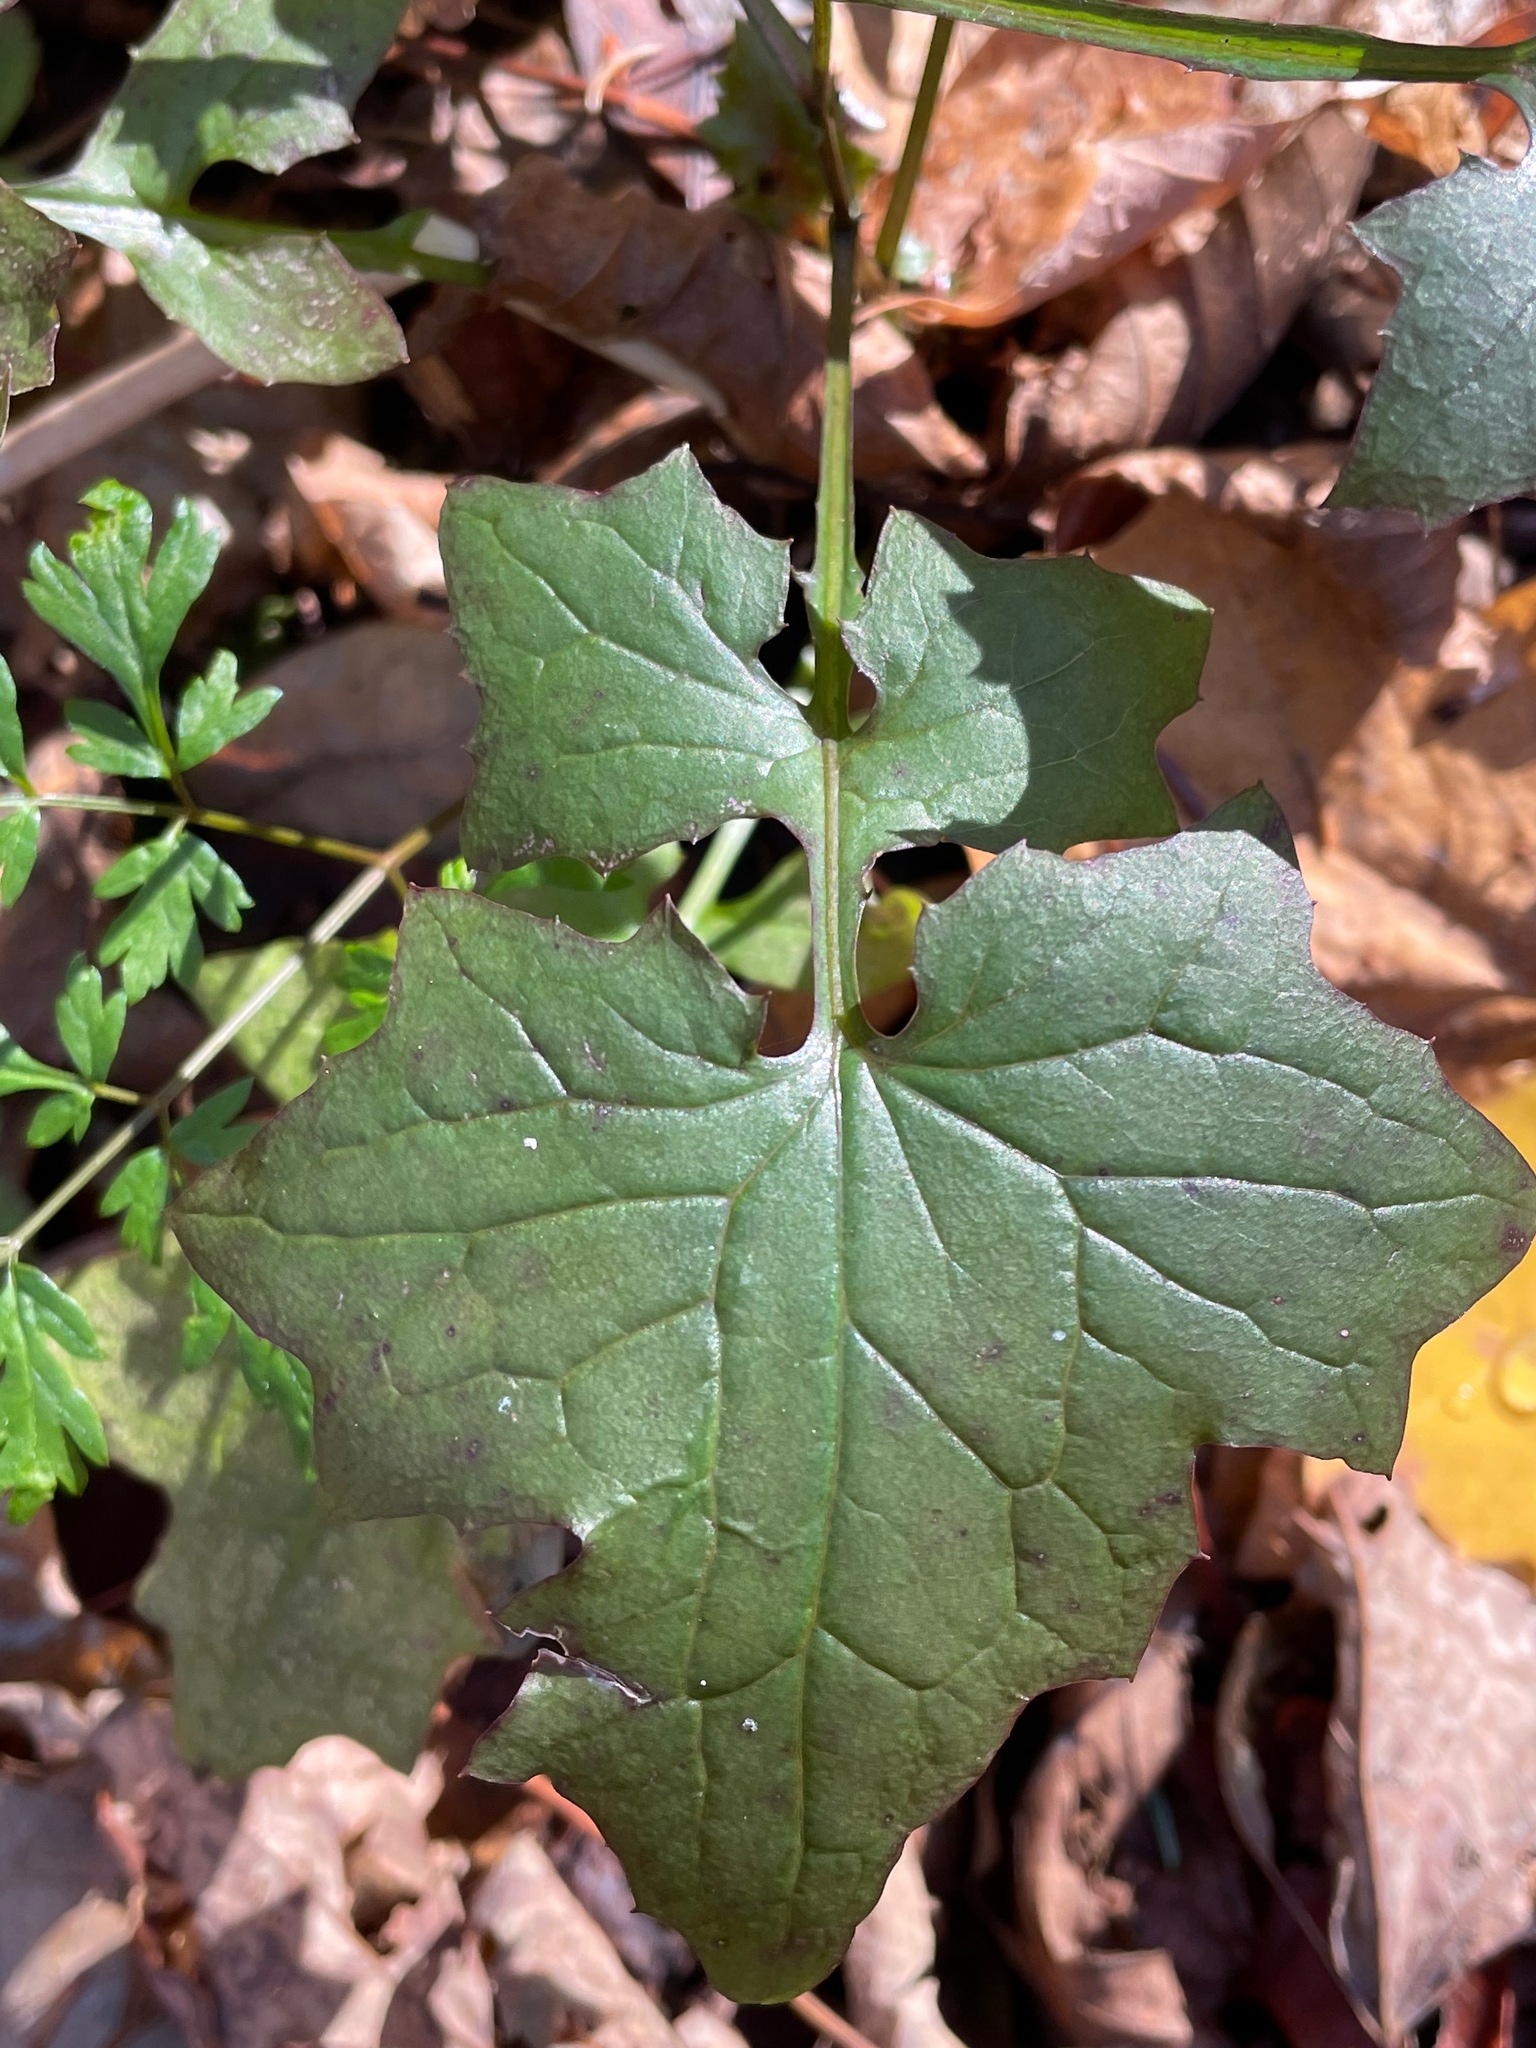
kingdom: Plantae
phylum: Tracheophyta
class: Magnoliopsida
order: Asterales
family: Asteraceae
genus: Mycelis
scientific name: Mycelis muralis
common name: Wall lettuce
